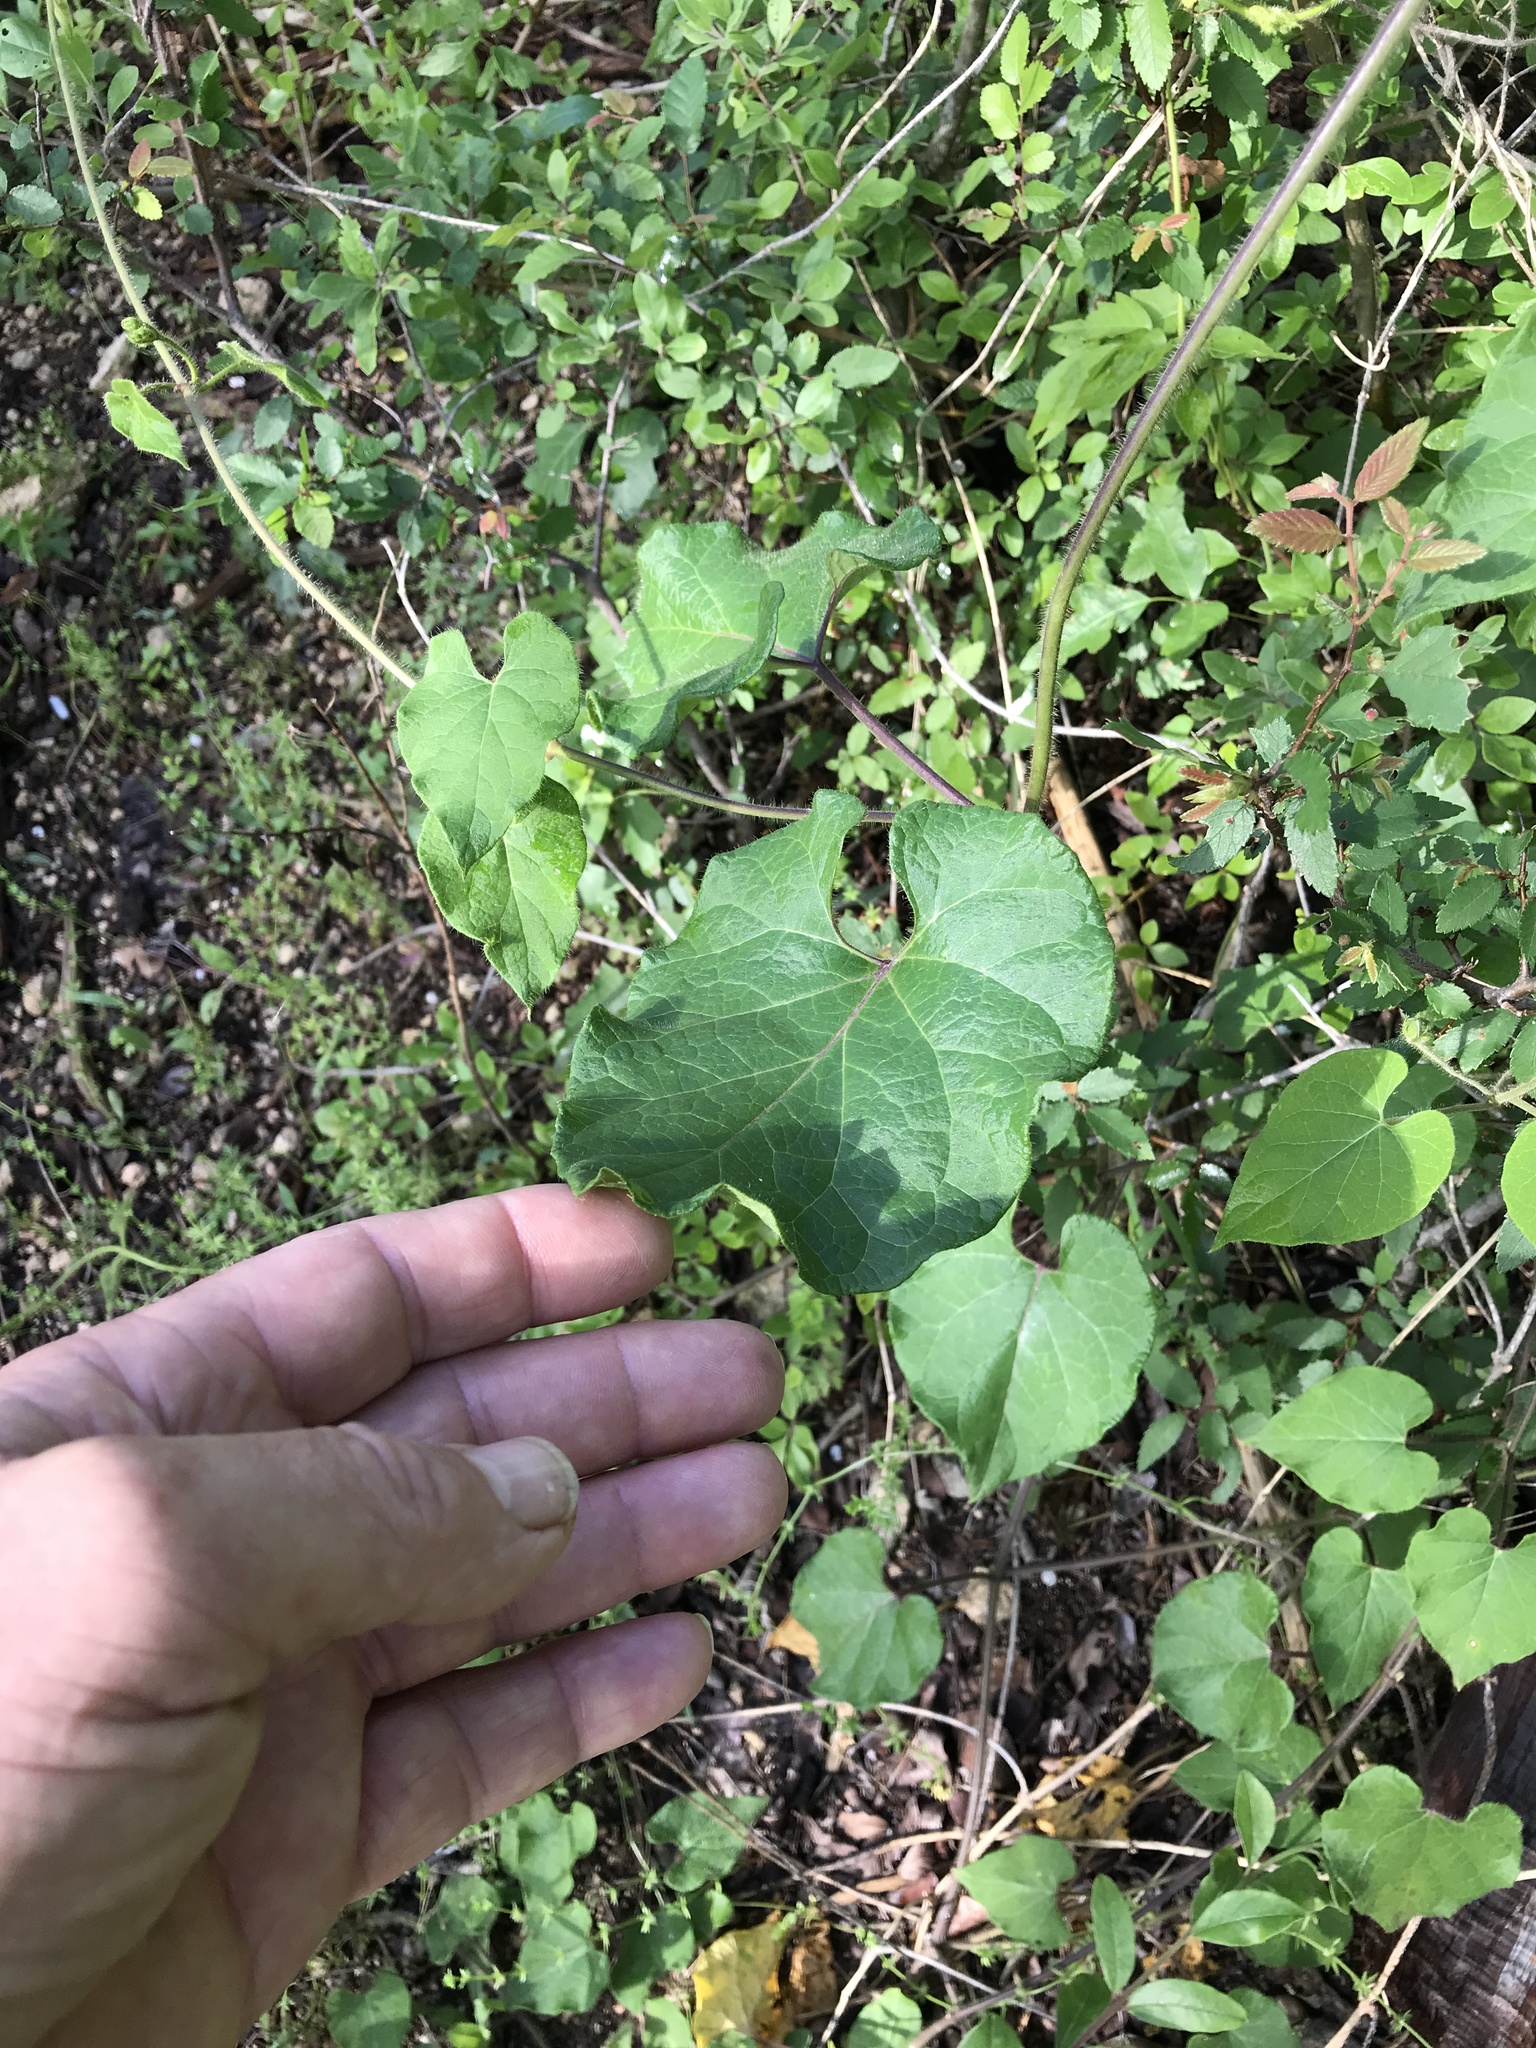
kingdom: Plantae
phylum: Tracheophyta
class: Magnoliopsida
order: Gentianales
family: Apocynaceae
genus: Dictyanthus
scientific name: Dictyanthus reticulatus
